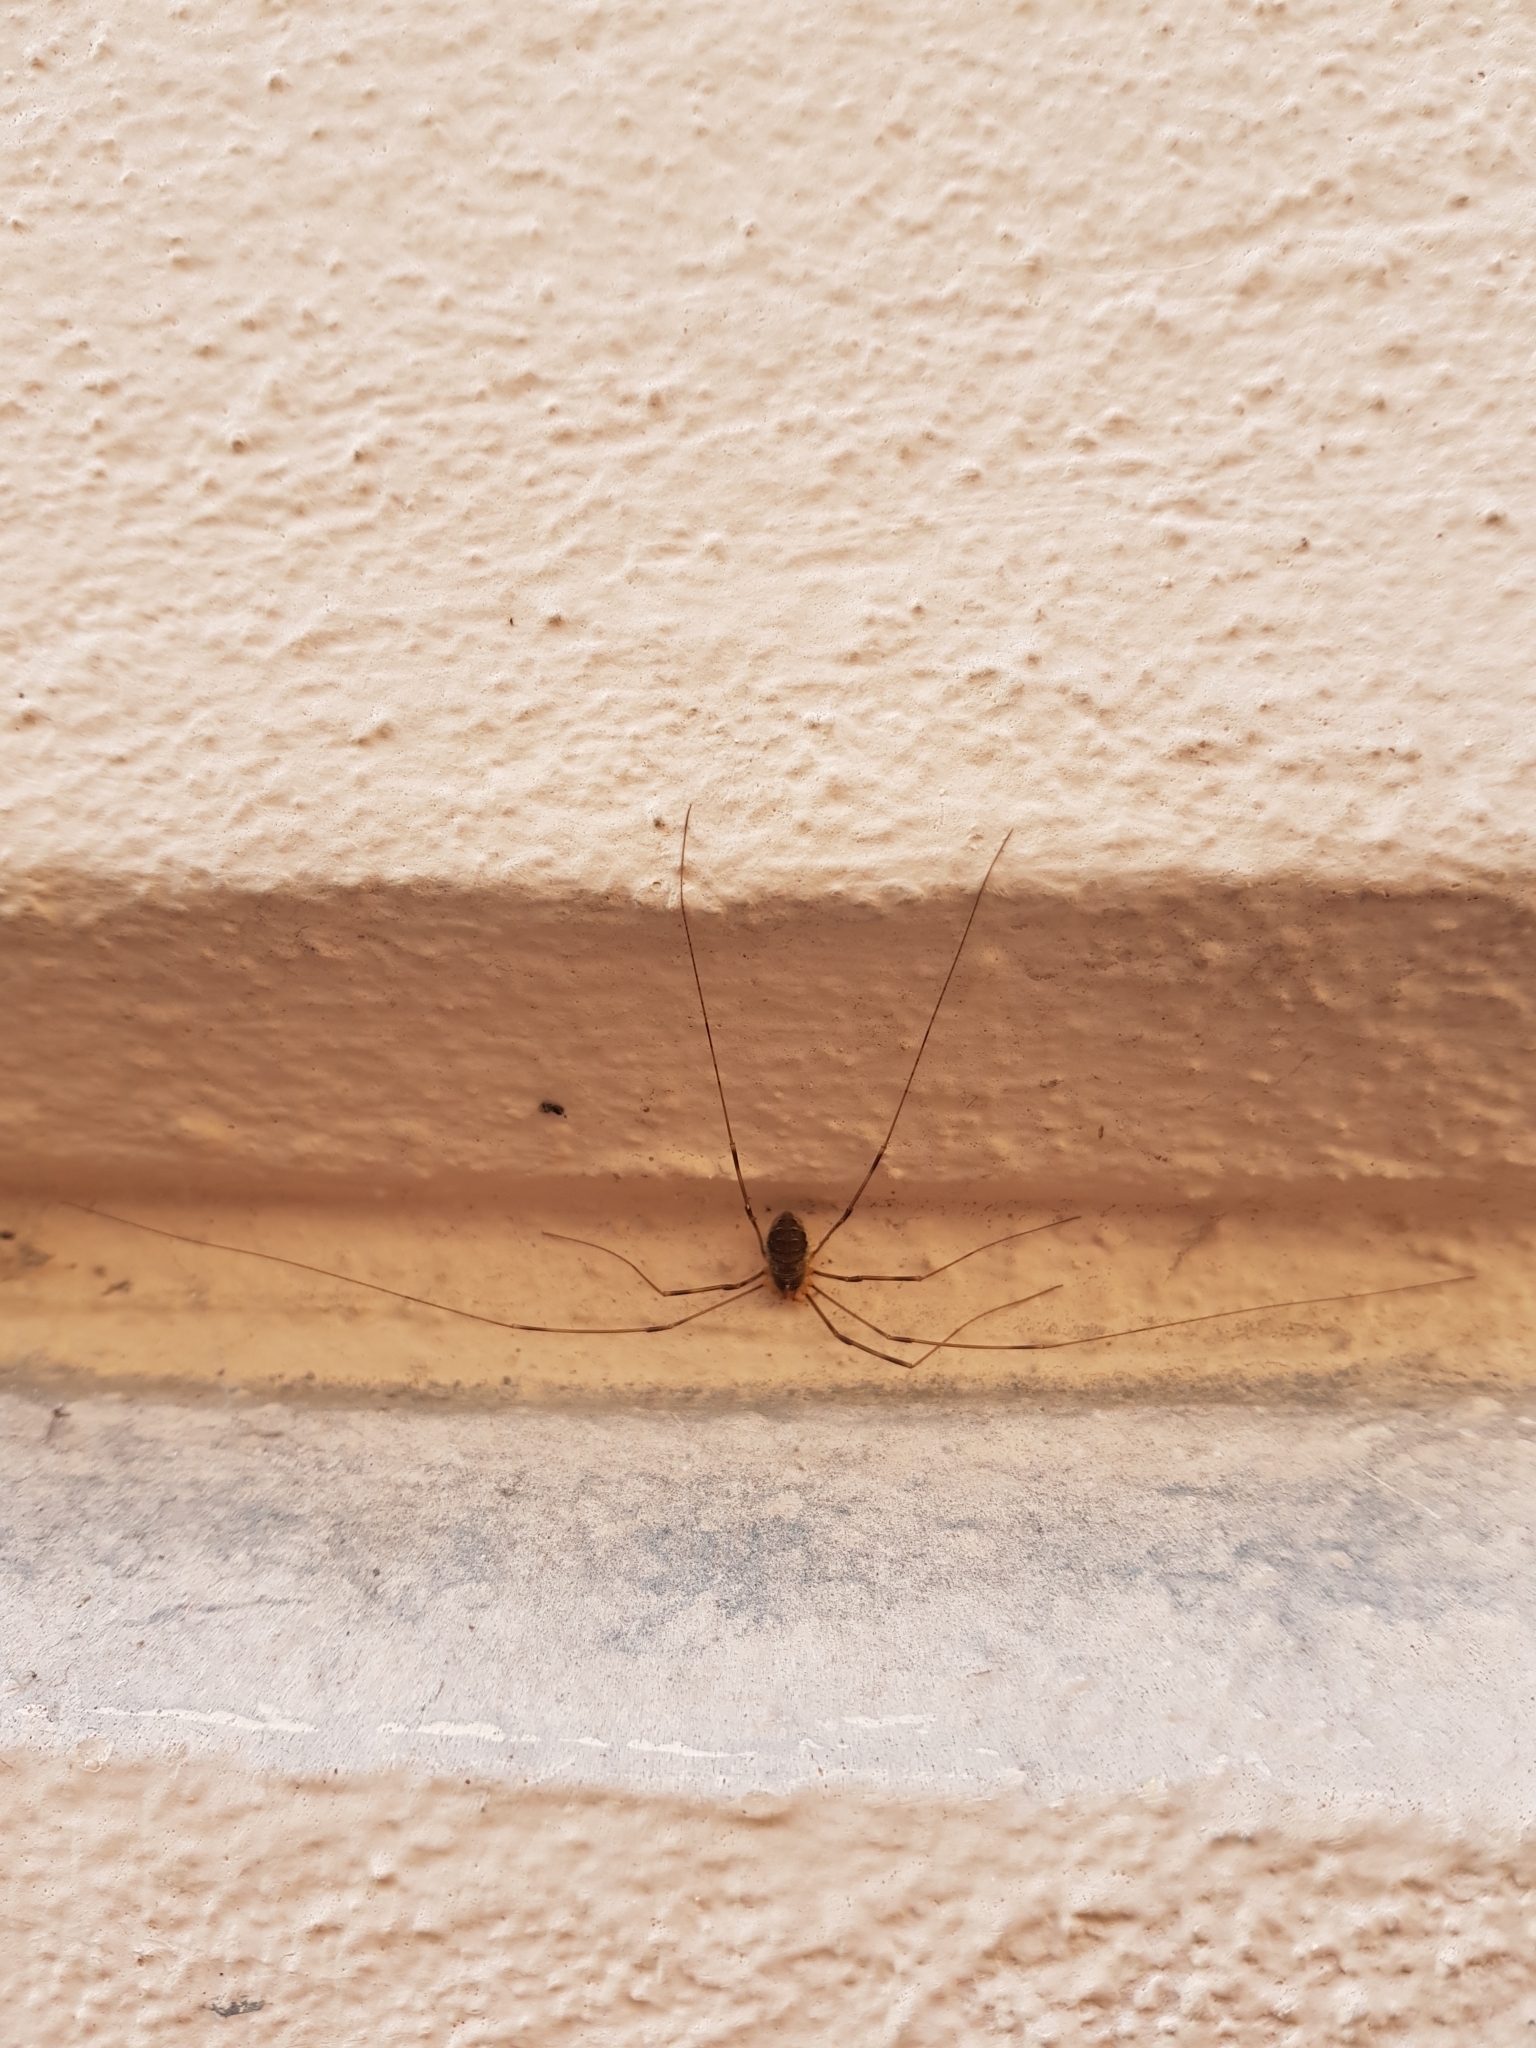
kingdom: Animalia
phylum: Arthropoda
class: Arachnida
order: Opiliones
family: Phalangiidae
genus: Opilio
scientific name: Opilio canestrinii
